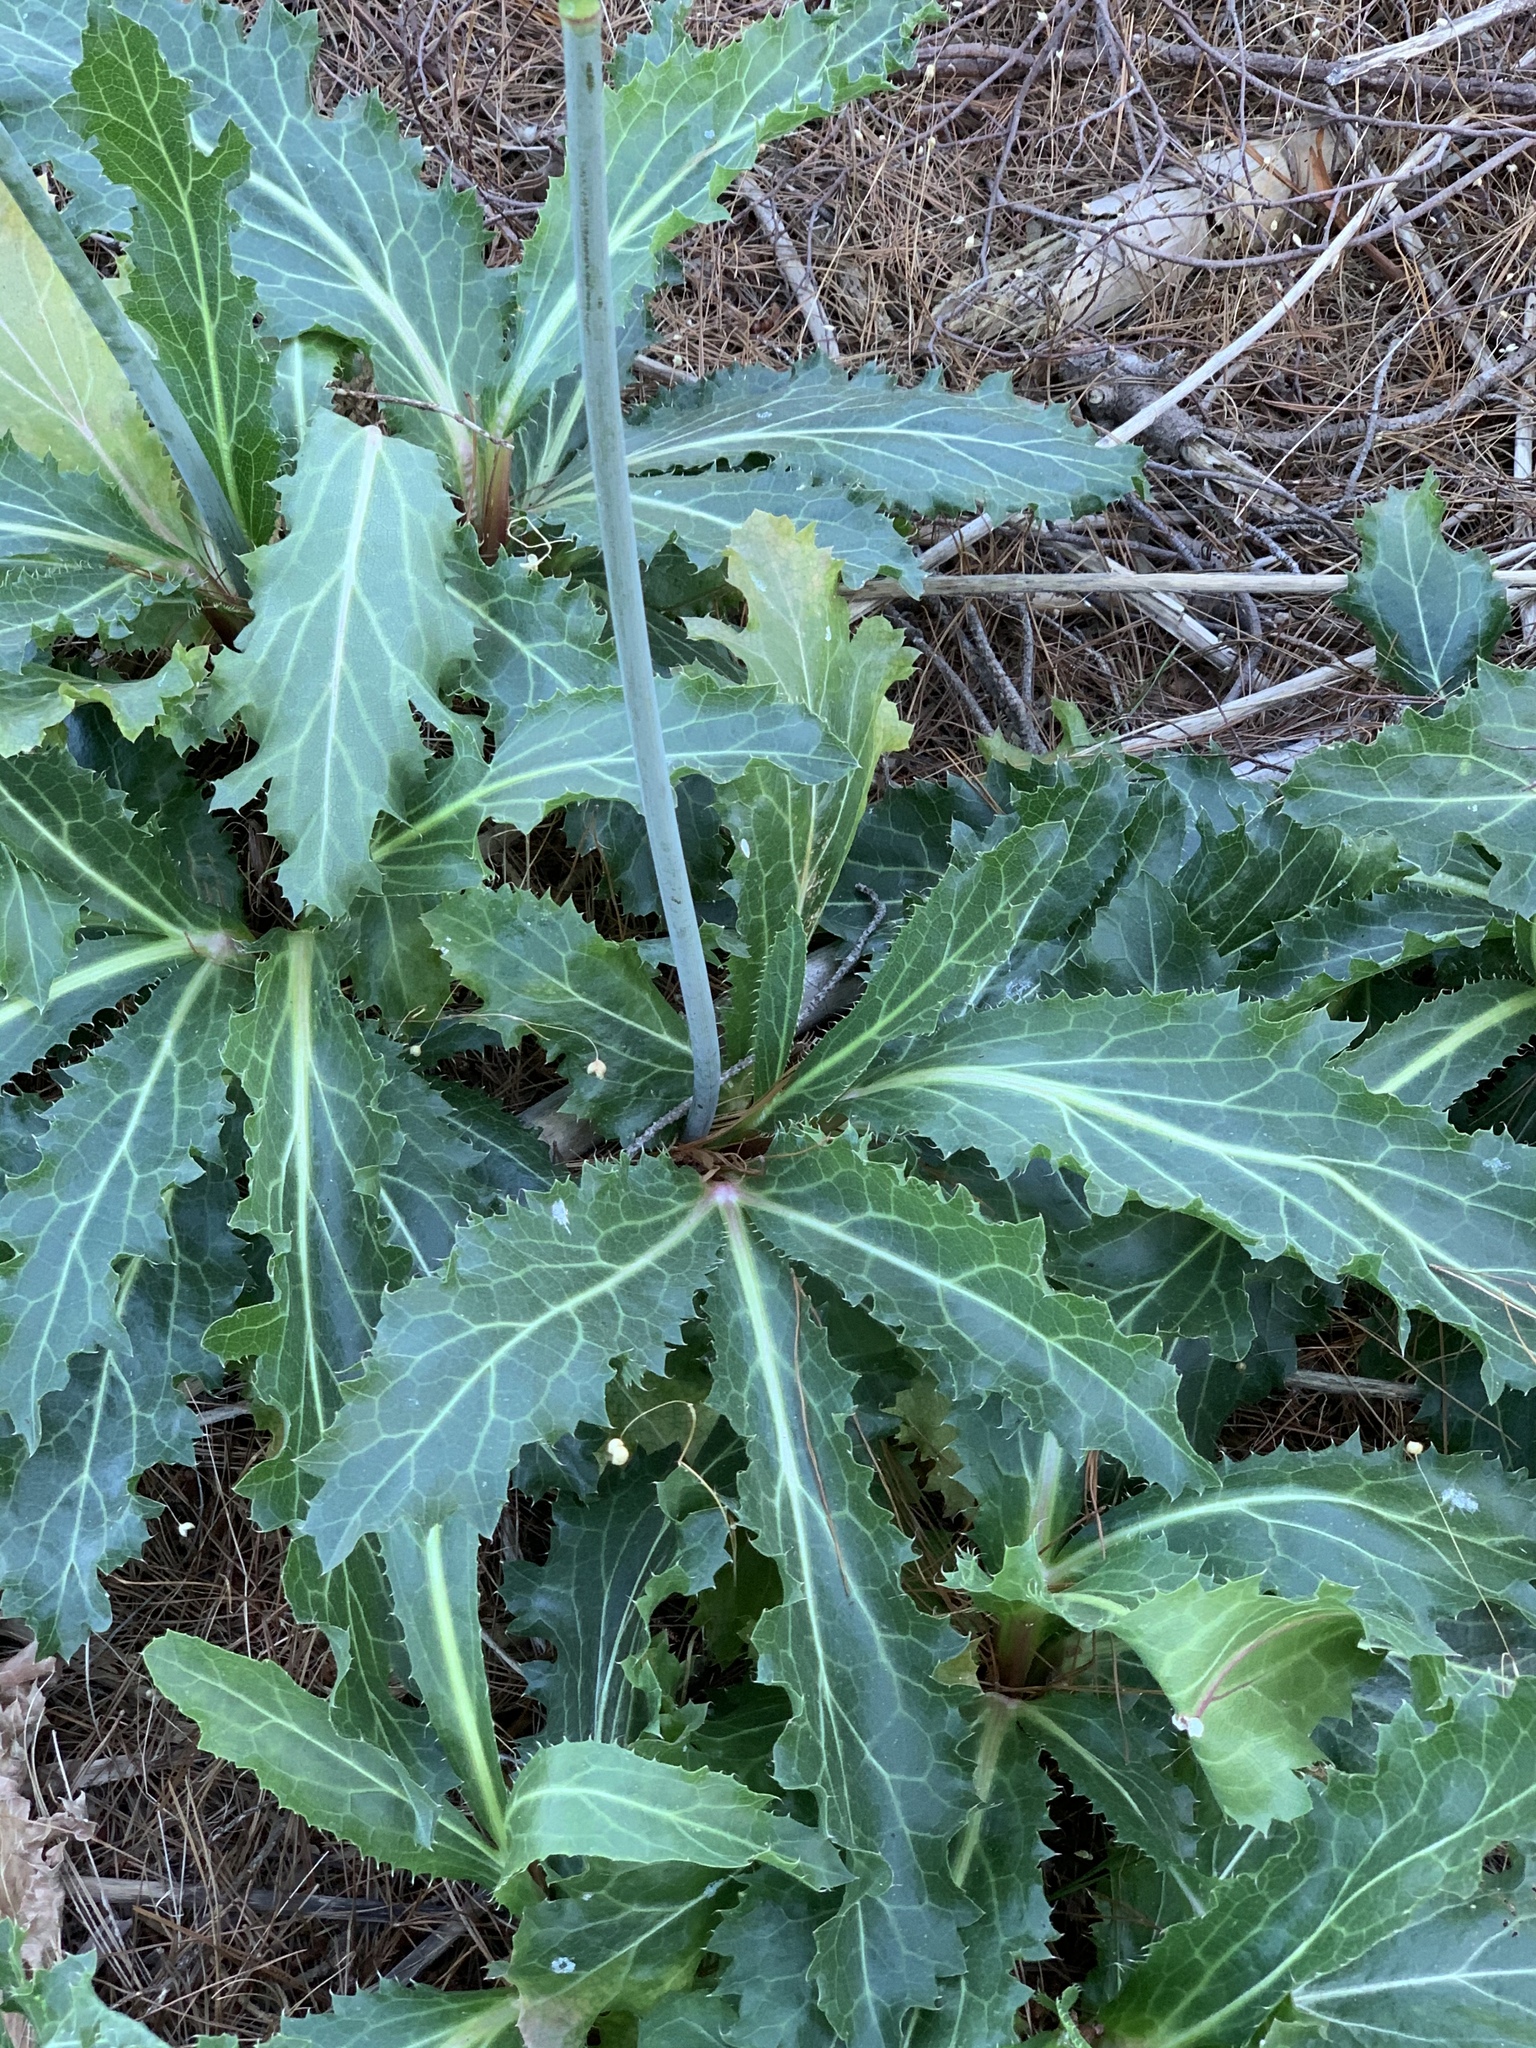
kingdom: Plantae
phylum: Tracheophyta
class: Magnoliopsida
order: Apiales
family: Apiaceae
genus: Lichtensteinia
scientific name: Lichtensteinia lacera
